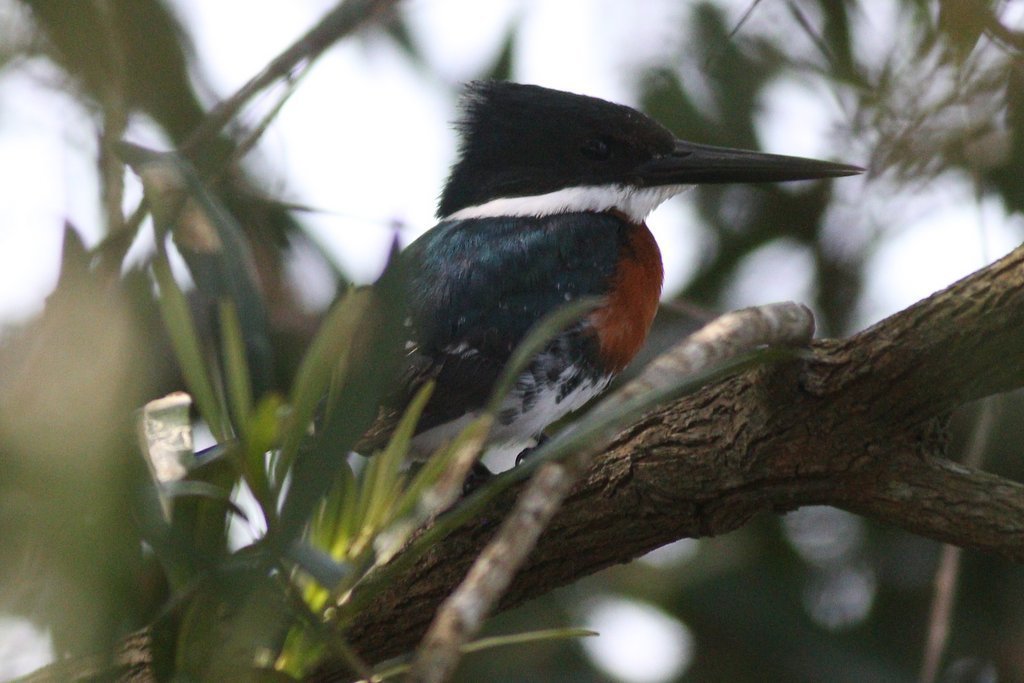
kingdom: Animalia
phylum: Chordata
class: Aves
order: Coraciiformes
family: Alcedinidae
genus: Chloroceryle
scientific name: Chloroceryle americana
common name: Green kingfisher
